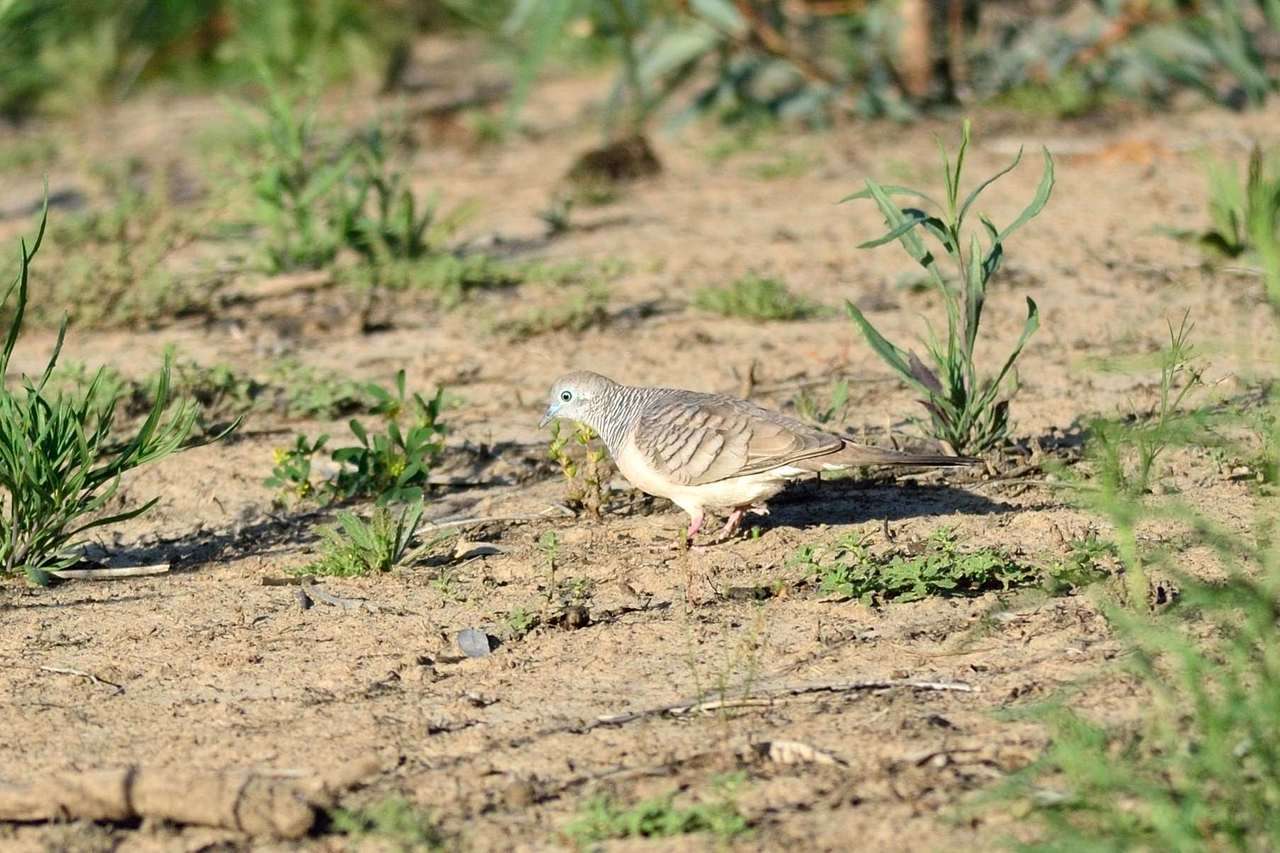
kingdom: Animalia
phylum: Chordata
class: Aves
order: Columbiformes
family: Columbidae
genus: Geopelia
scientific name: Geopelia placida
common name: Peaceful dove
